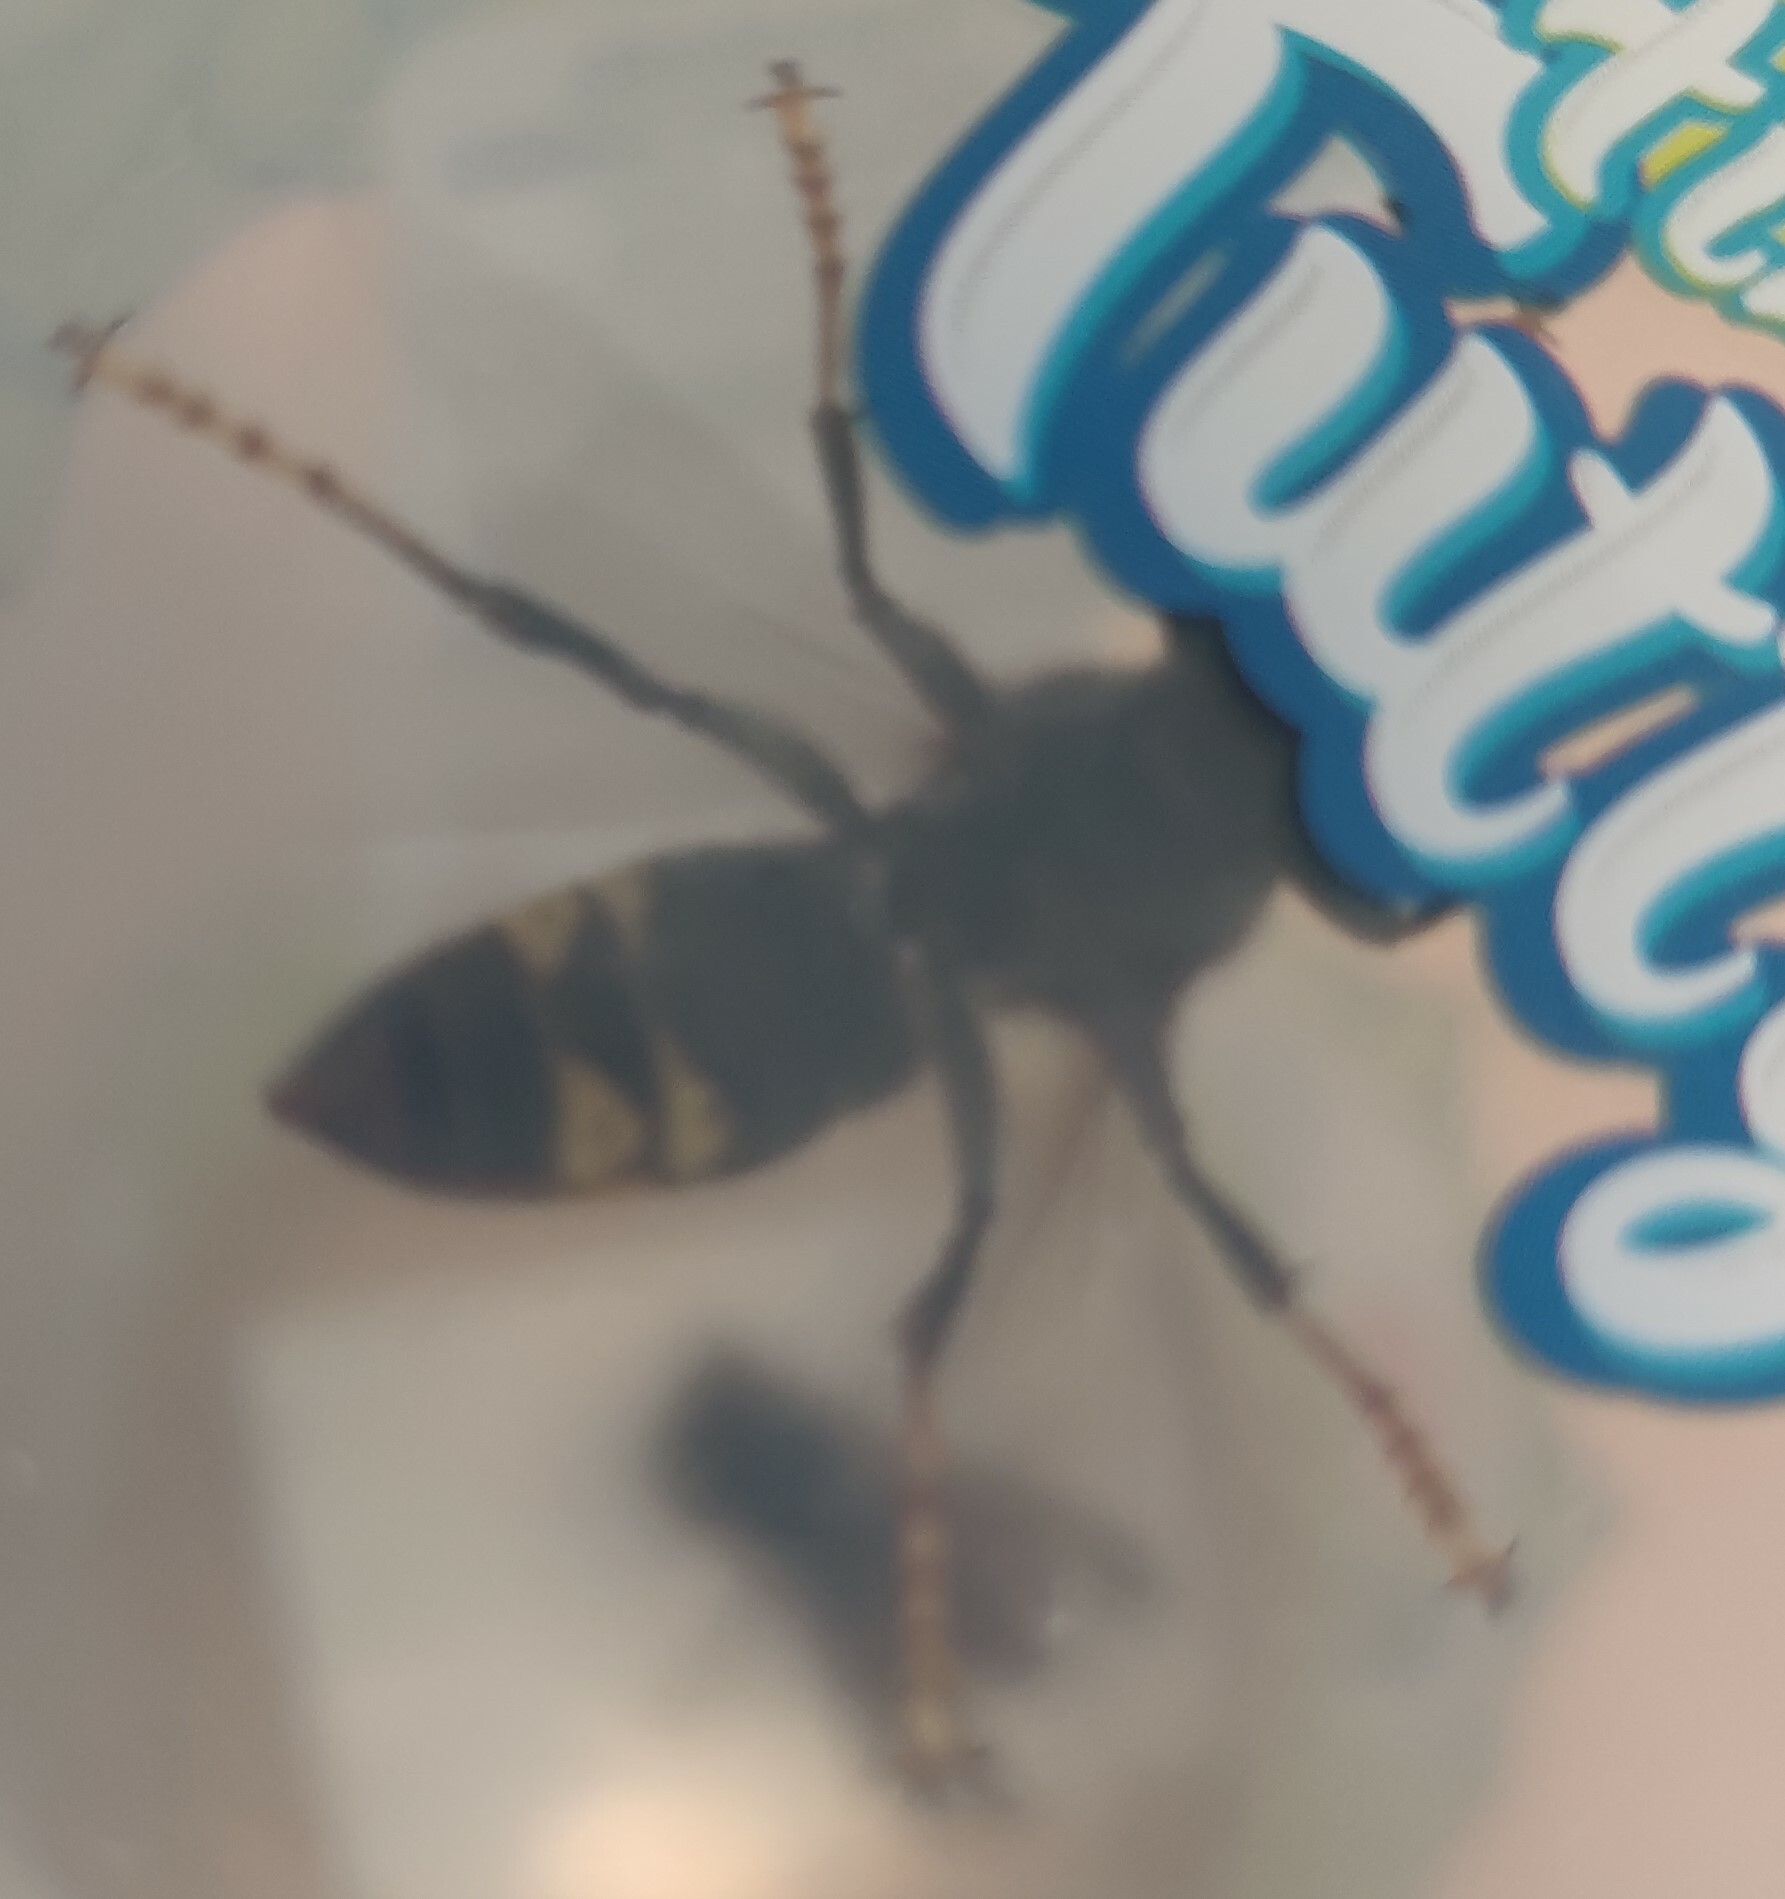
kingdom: Animalia
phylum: Arthropoda
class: Insecta
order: Hymenoptera
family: Vespidae
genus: Vespa
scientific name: Vespa velutina
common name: Asian hornet
